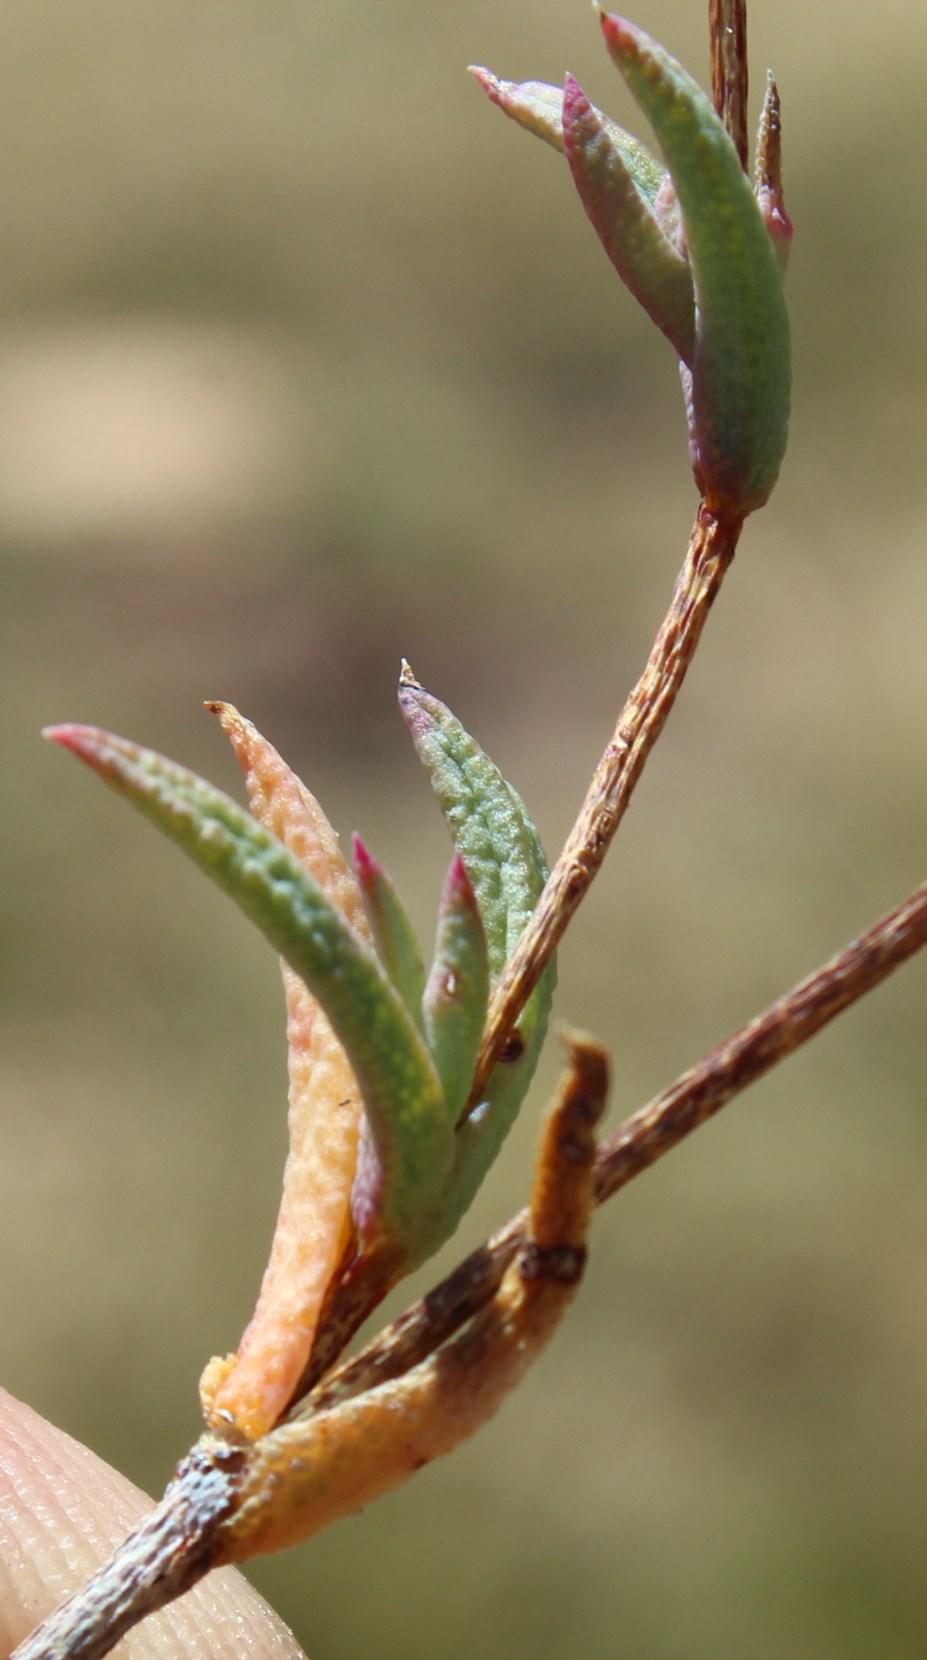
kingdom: Plantae
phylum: Tracheophyta
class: Magnoliopsida
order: Caryophyllales
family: Aizoaceae
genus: Erepsia
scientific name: Erepsia aspera
